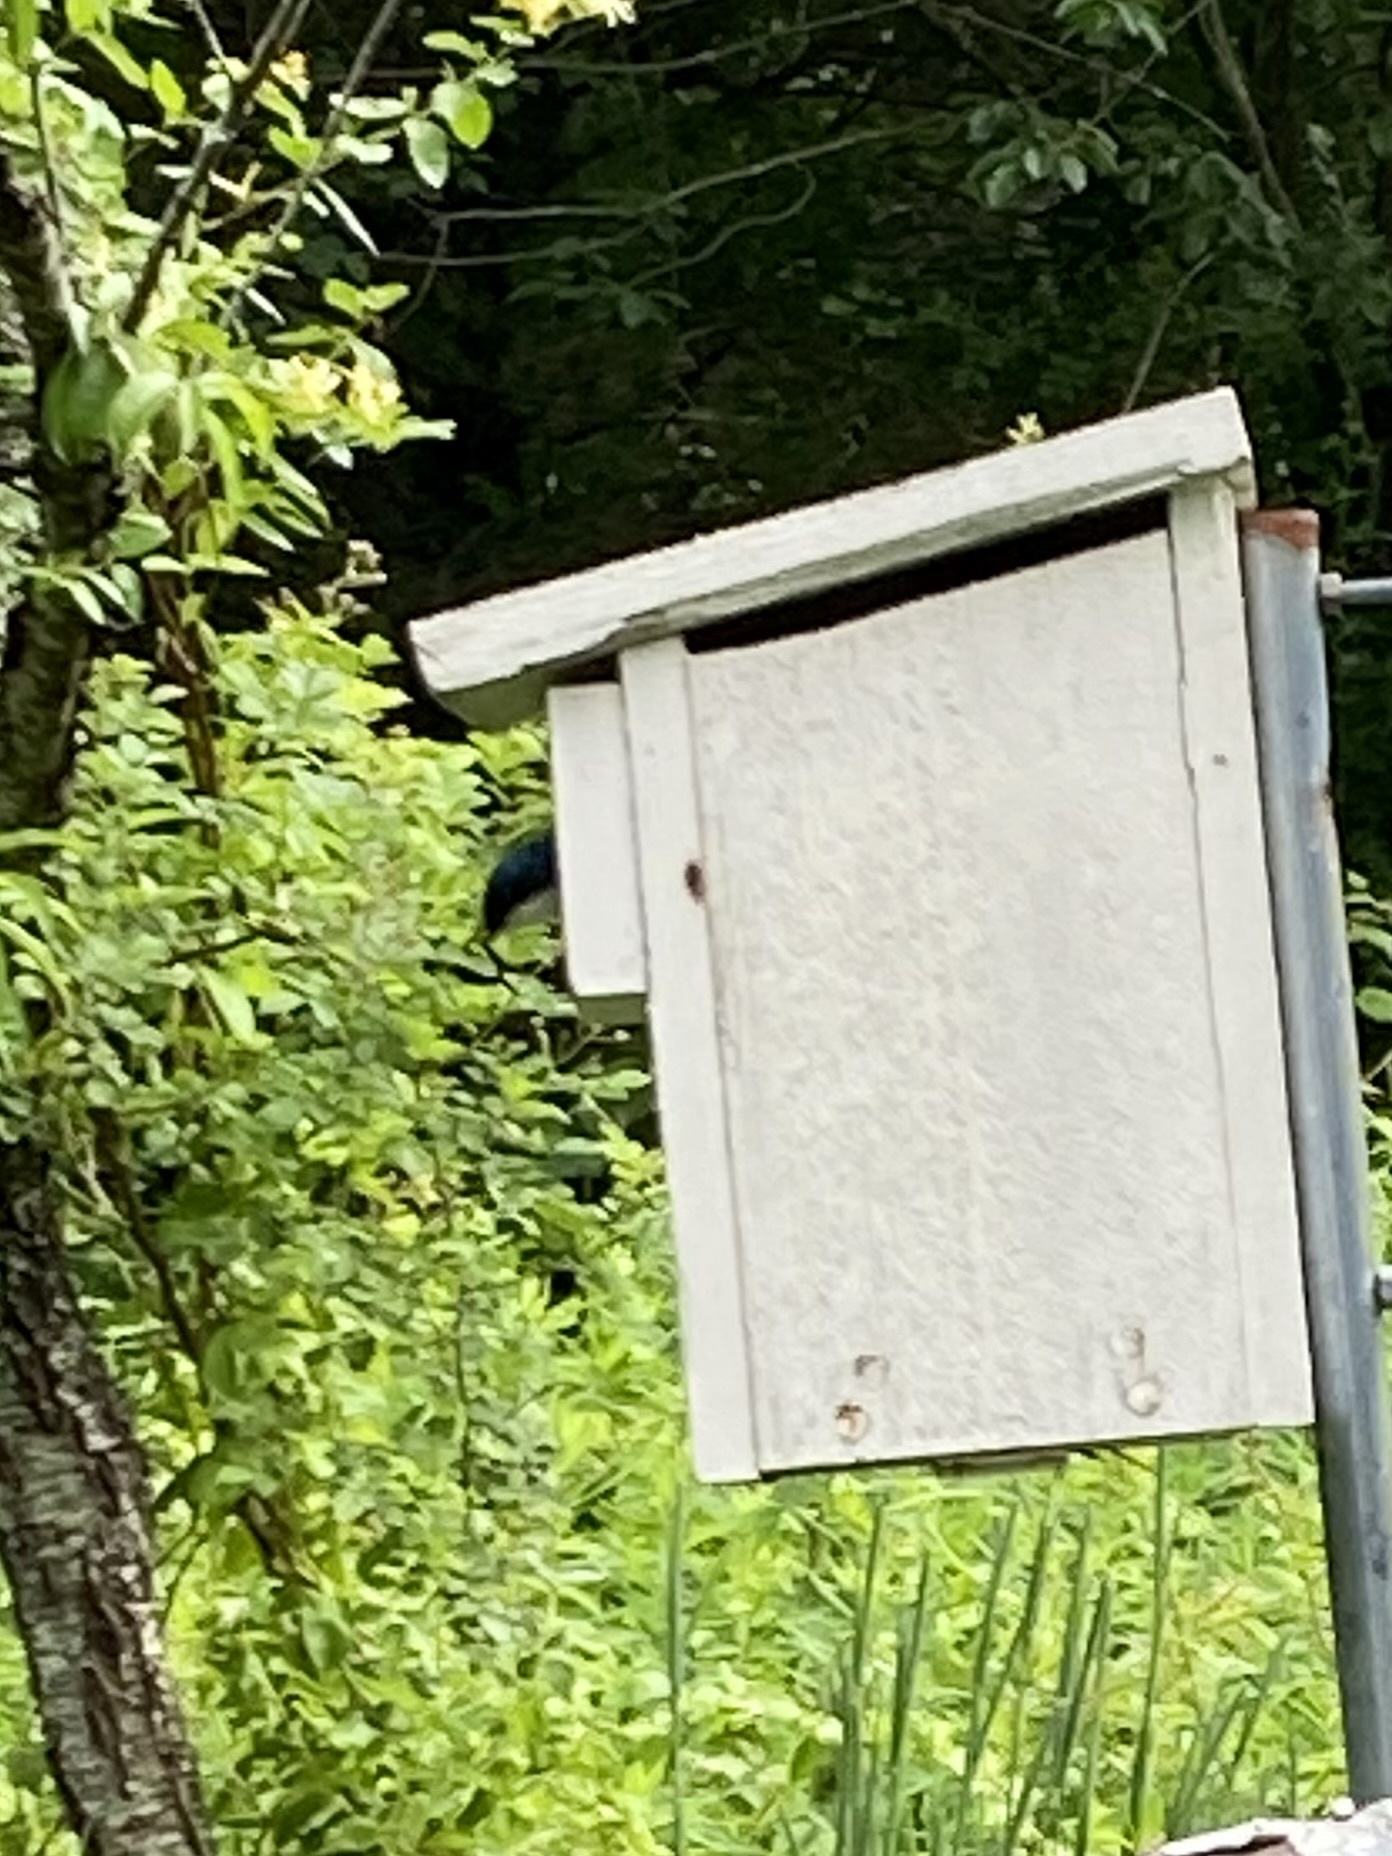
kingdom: Animalia
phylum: Chordata
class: Aves
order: Passeriformes
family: Hirundinidae
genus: Tachycineta
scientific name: Tachycineta bicolor
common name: Tree swallow
